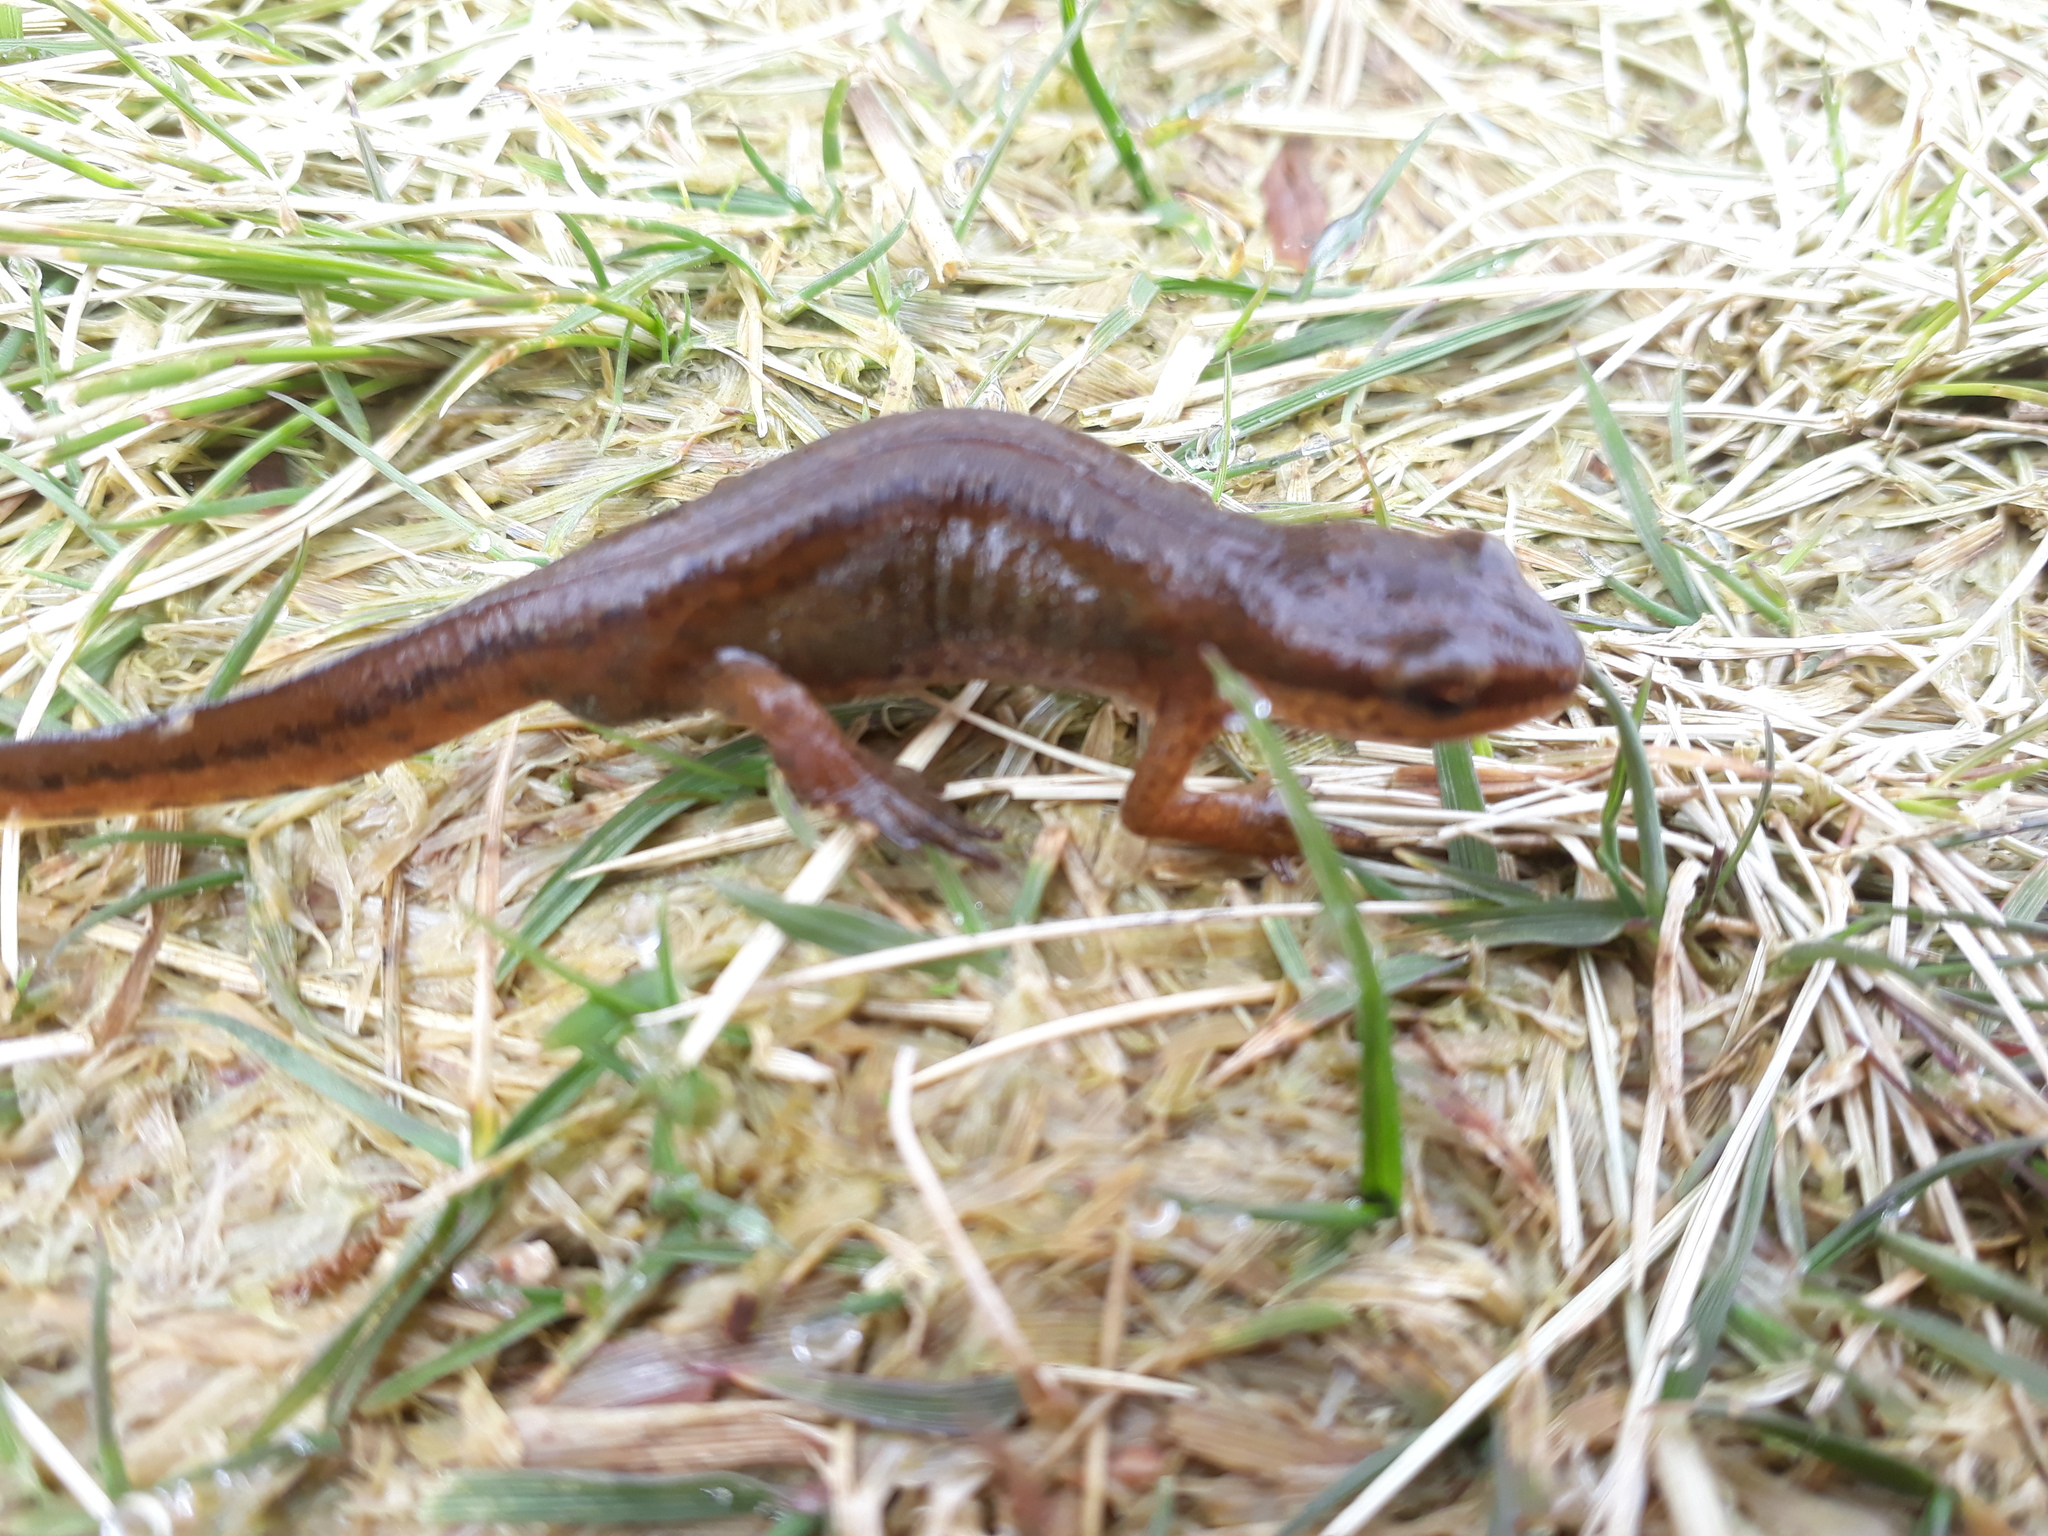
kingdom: Animalia
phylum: Chordata
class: Amphibia
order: Caudata
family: Salamandridae
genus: Lissotriton
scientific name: Lissotriton helveticus
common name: Palmate newt
